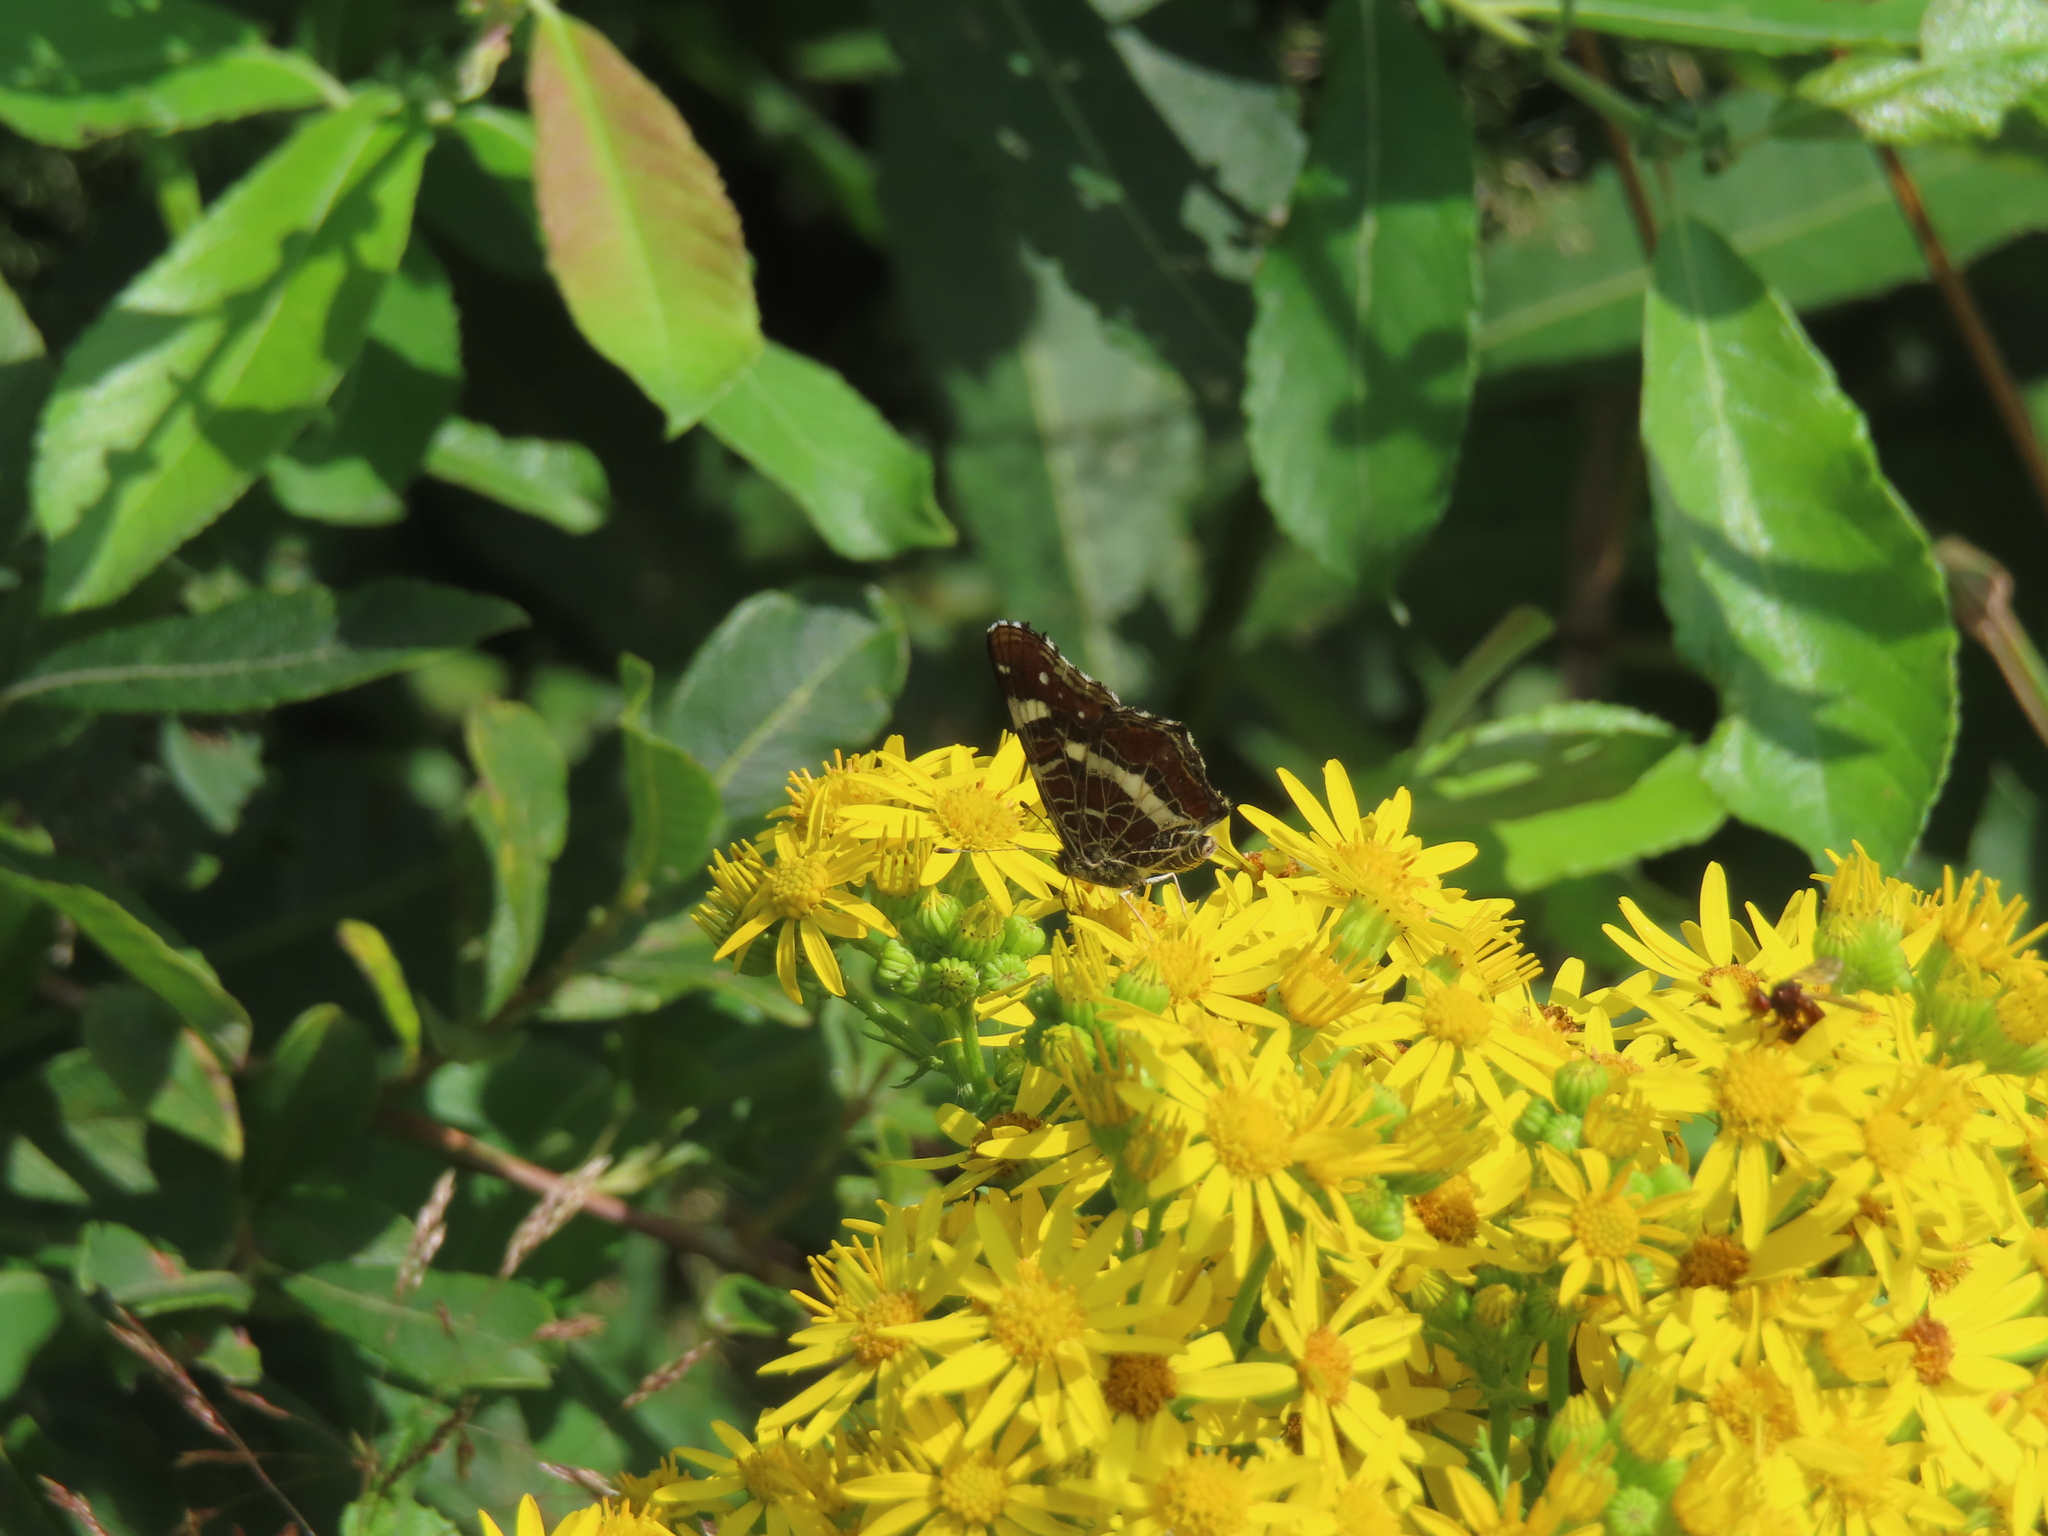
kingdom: Animalia
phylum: Arthropoda
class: Insecta
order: Lepidoptera
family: Nymphalidae
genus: Araschnia
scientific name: Araschnia levana
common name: Map butterfly
